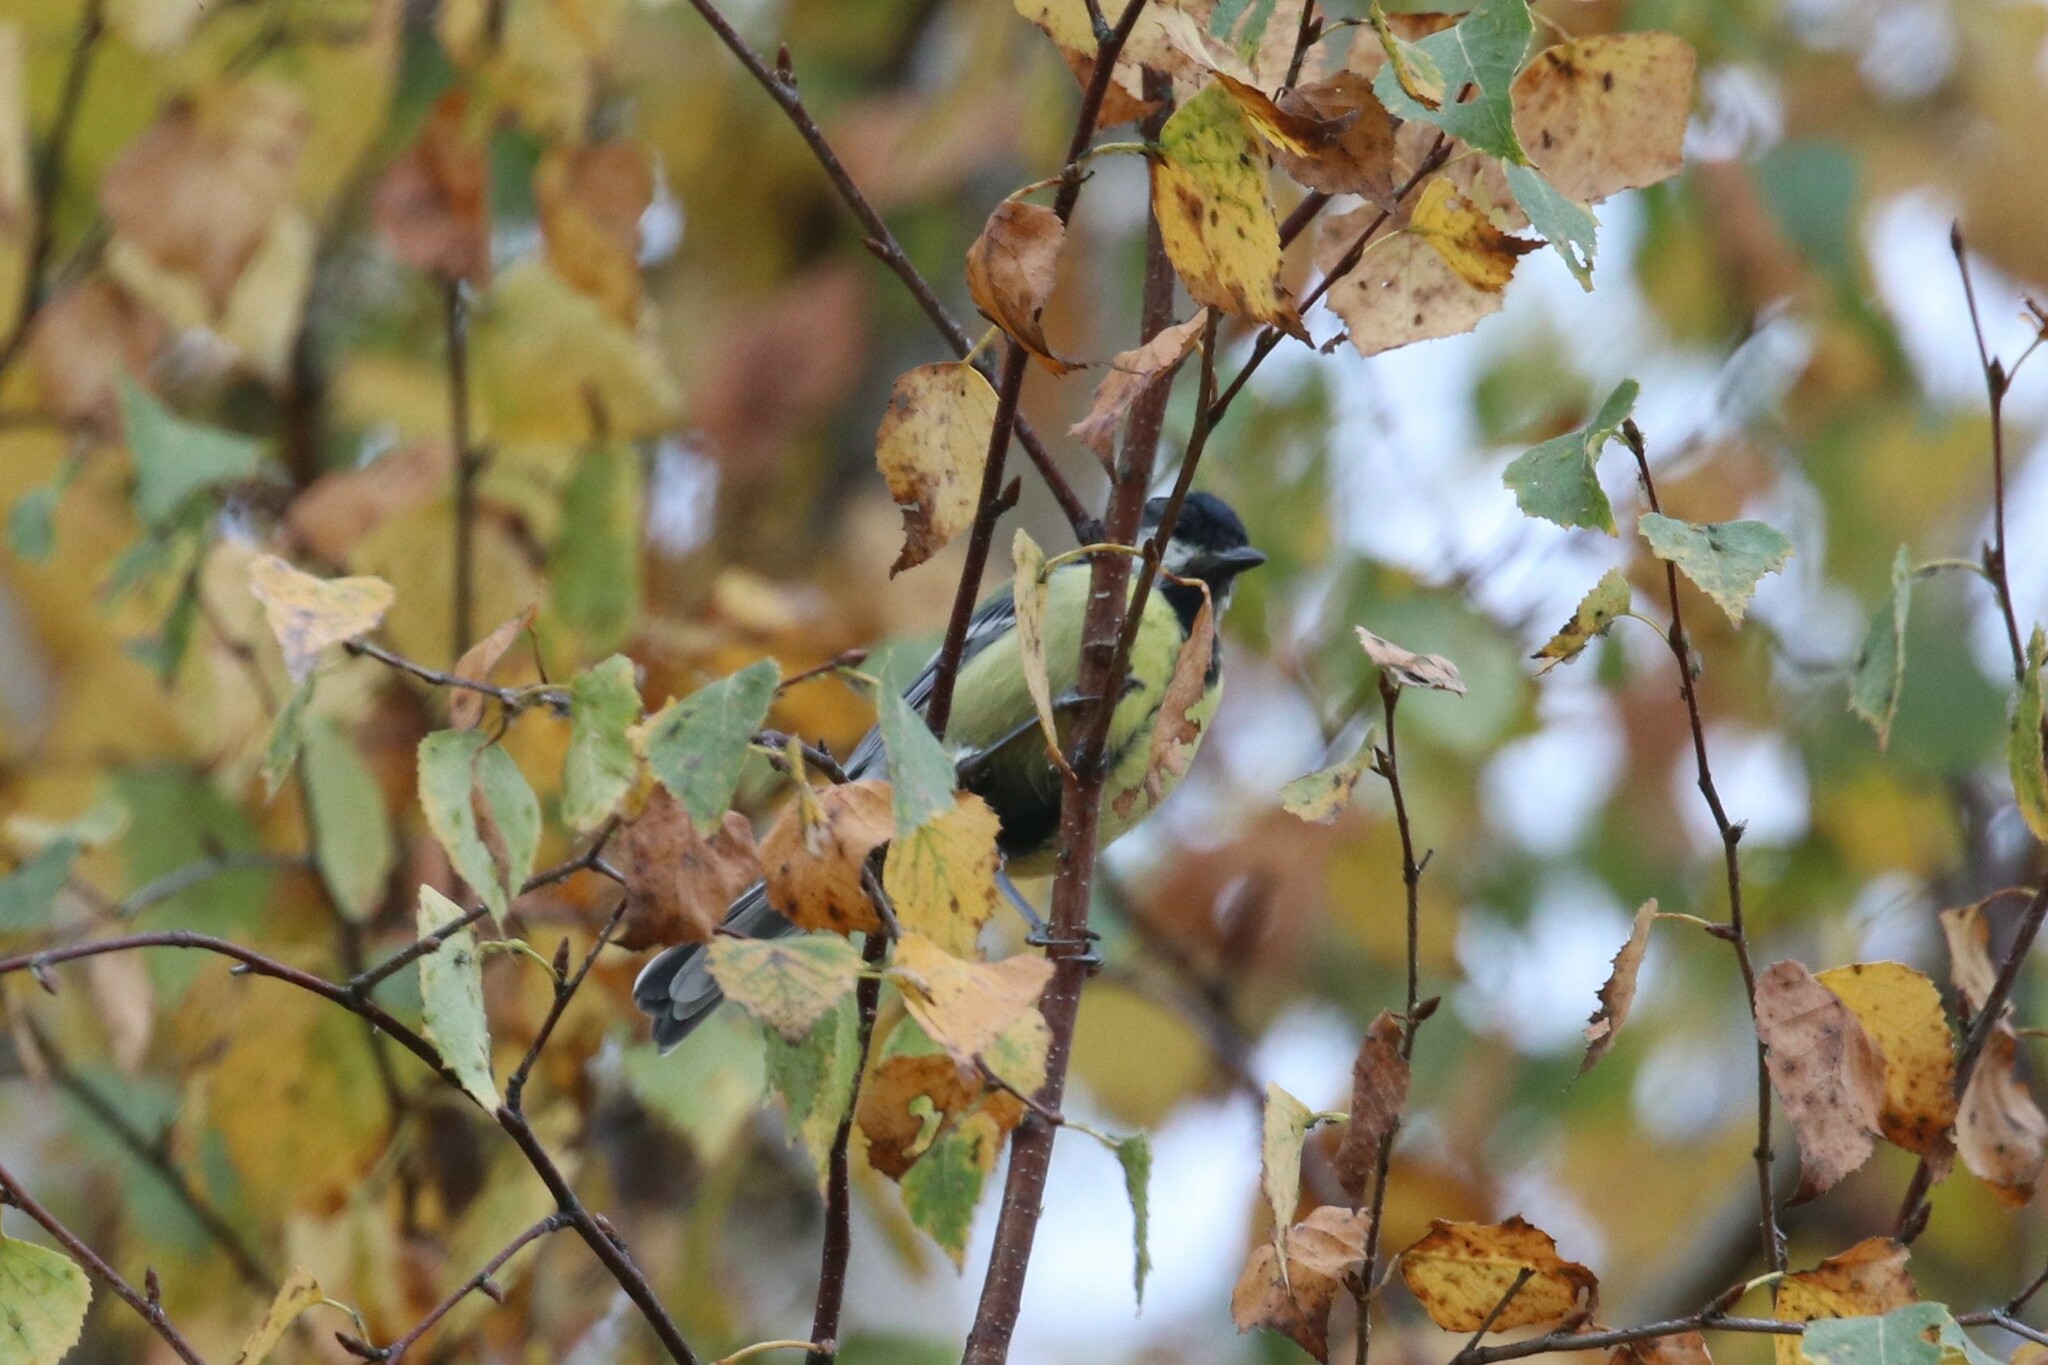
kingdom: Animalia
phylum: Chordata
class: Aves
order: Passeriformes
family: Paridae
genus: Parus
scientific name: Parus major
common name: Great tit
